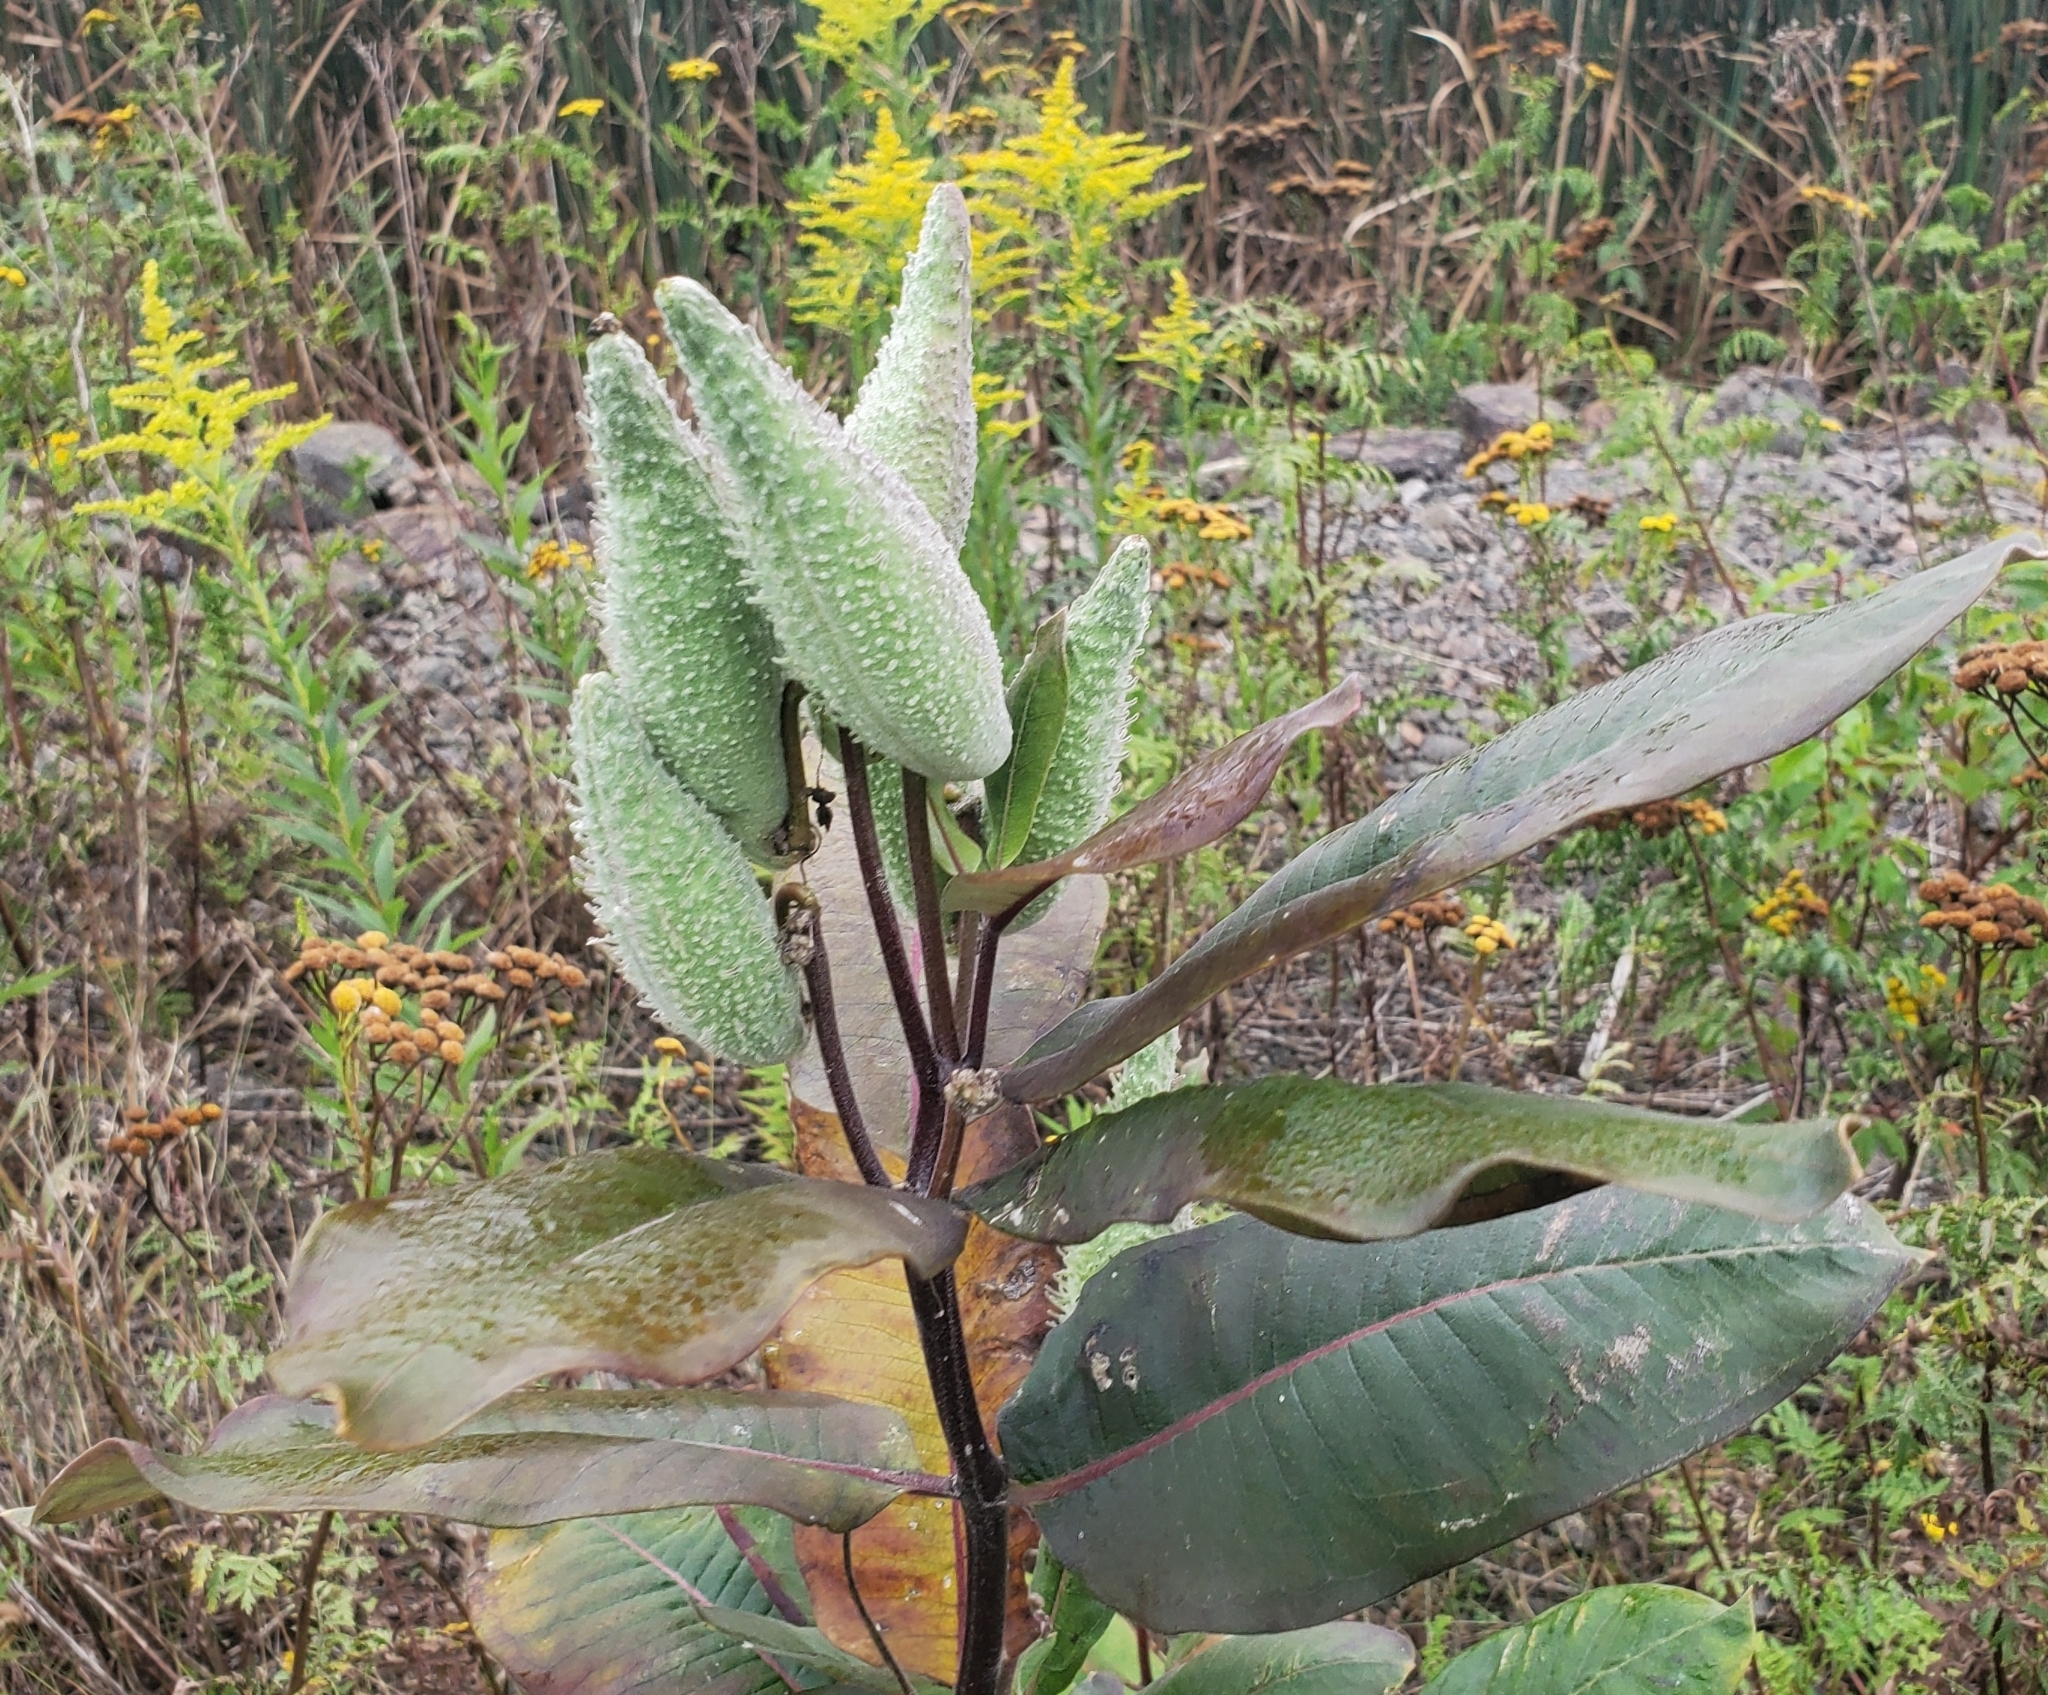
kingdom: Plantae
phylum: Tracheophyta
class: Magnoliopsida
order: Gentianales
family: Apocynaceae
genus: Asclepias
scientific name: Asclepias syriaca
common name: Common milkweed
